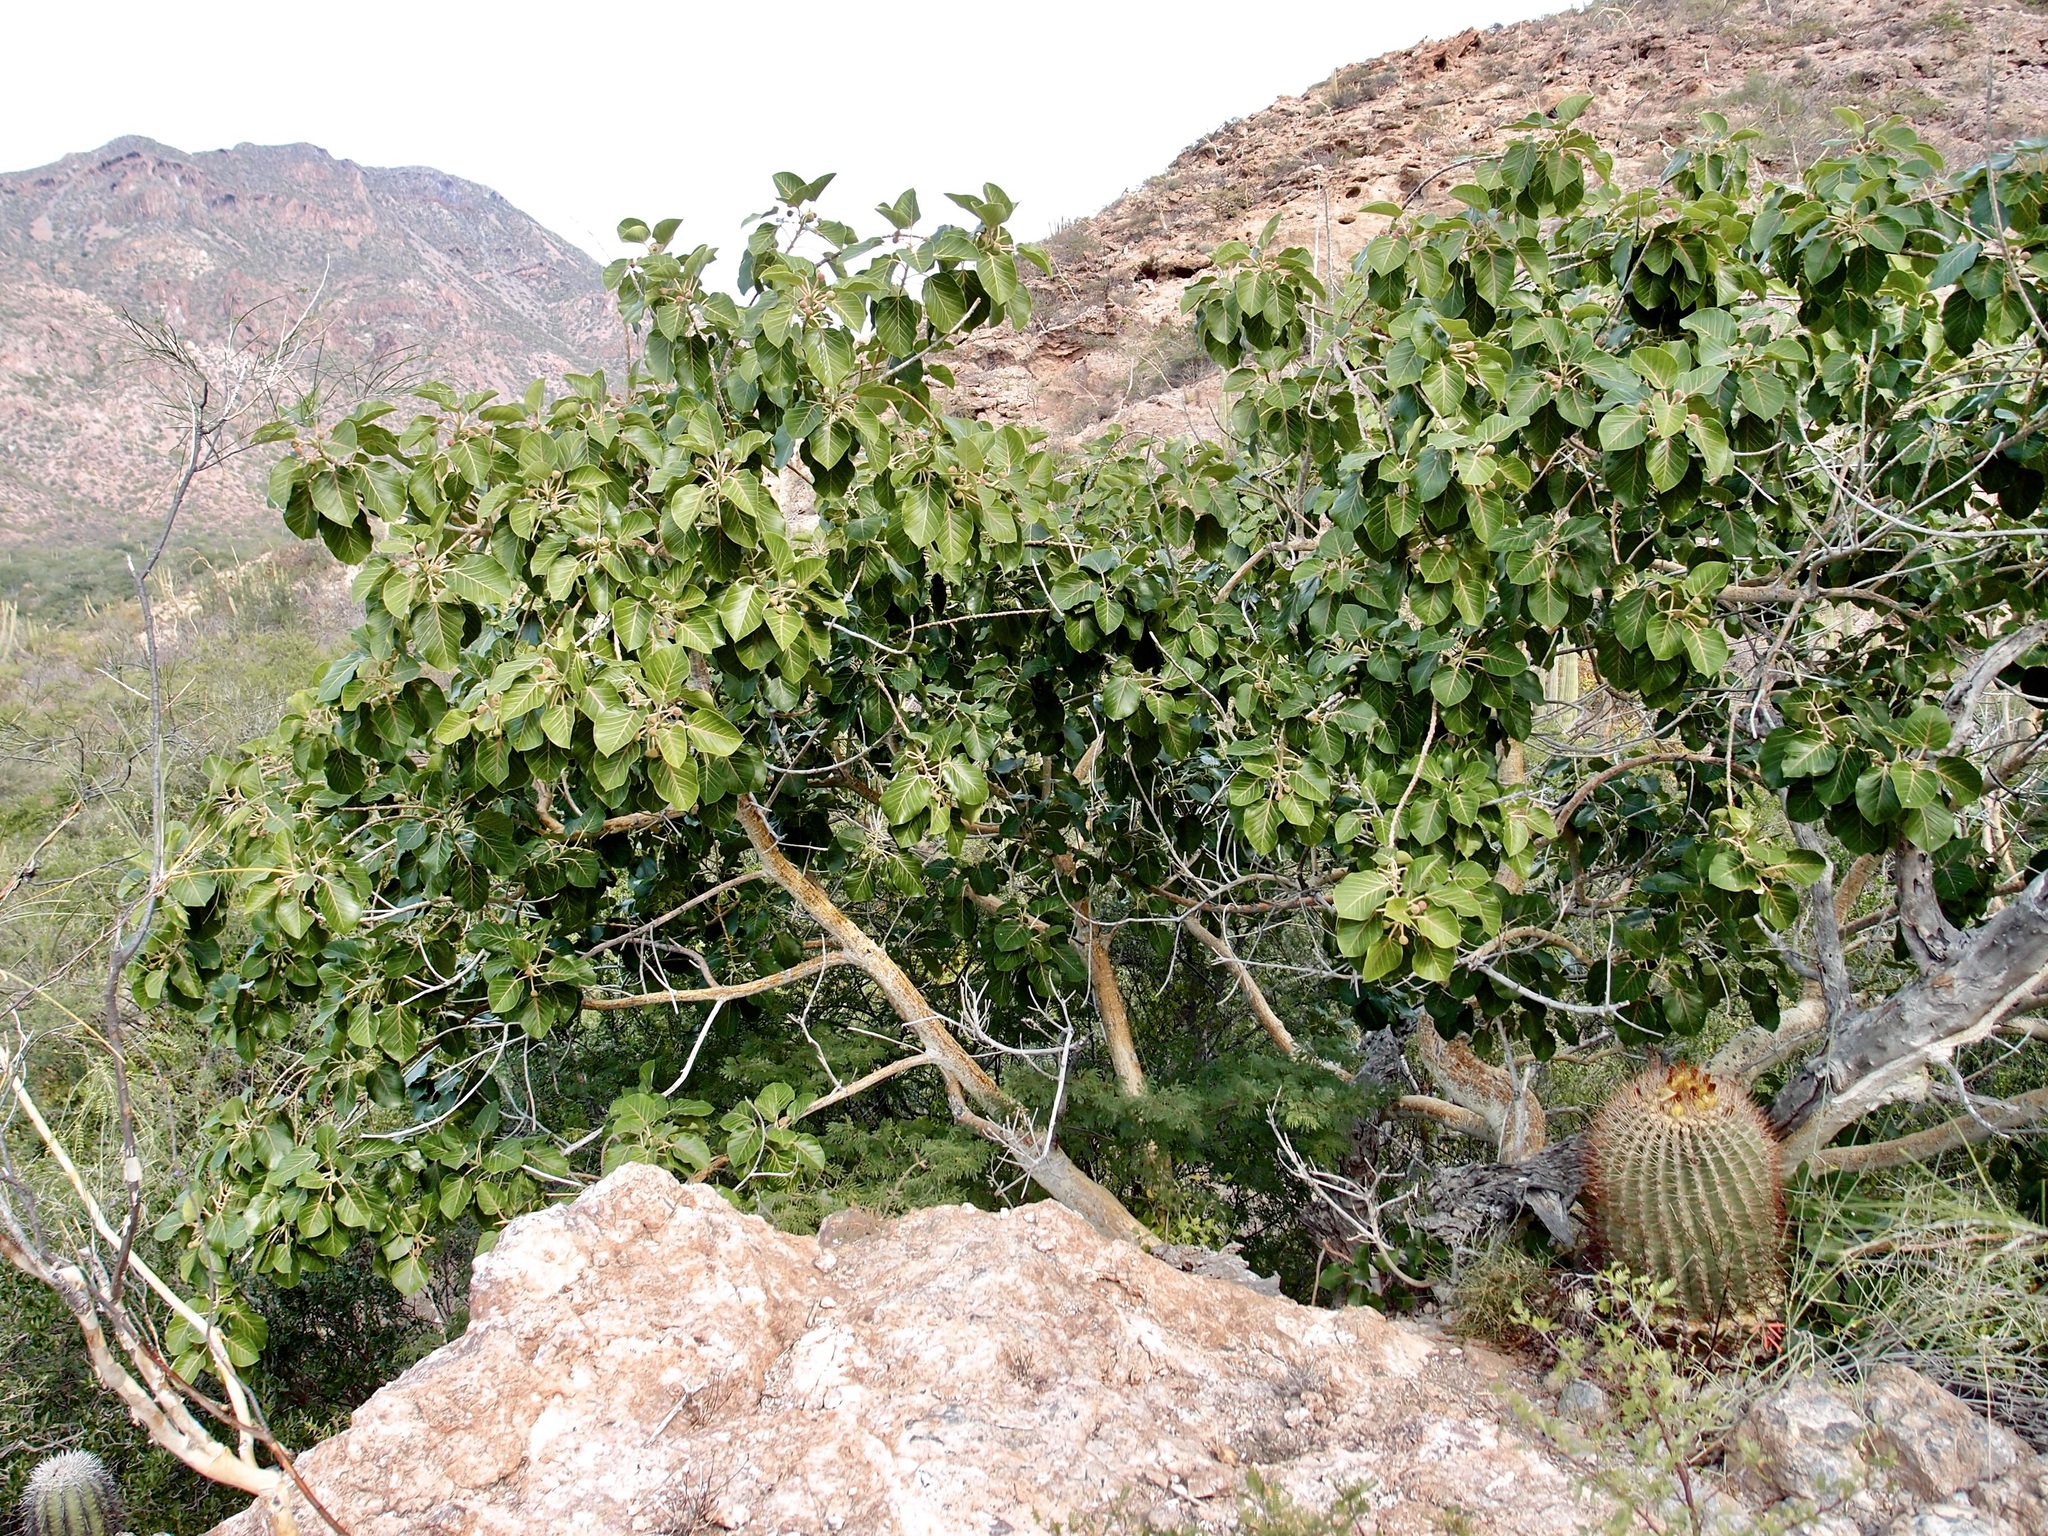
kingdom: Plantae
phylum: Tracheophyta
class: Magnoliopsida
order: Rosales
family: Moraceae
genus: Ficus
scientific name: Ficus petiolaris
